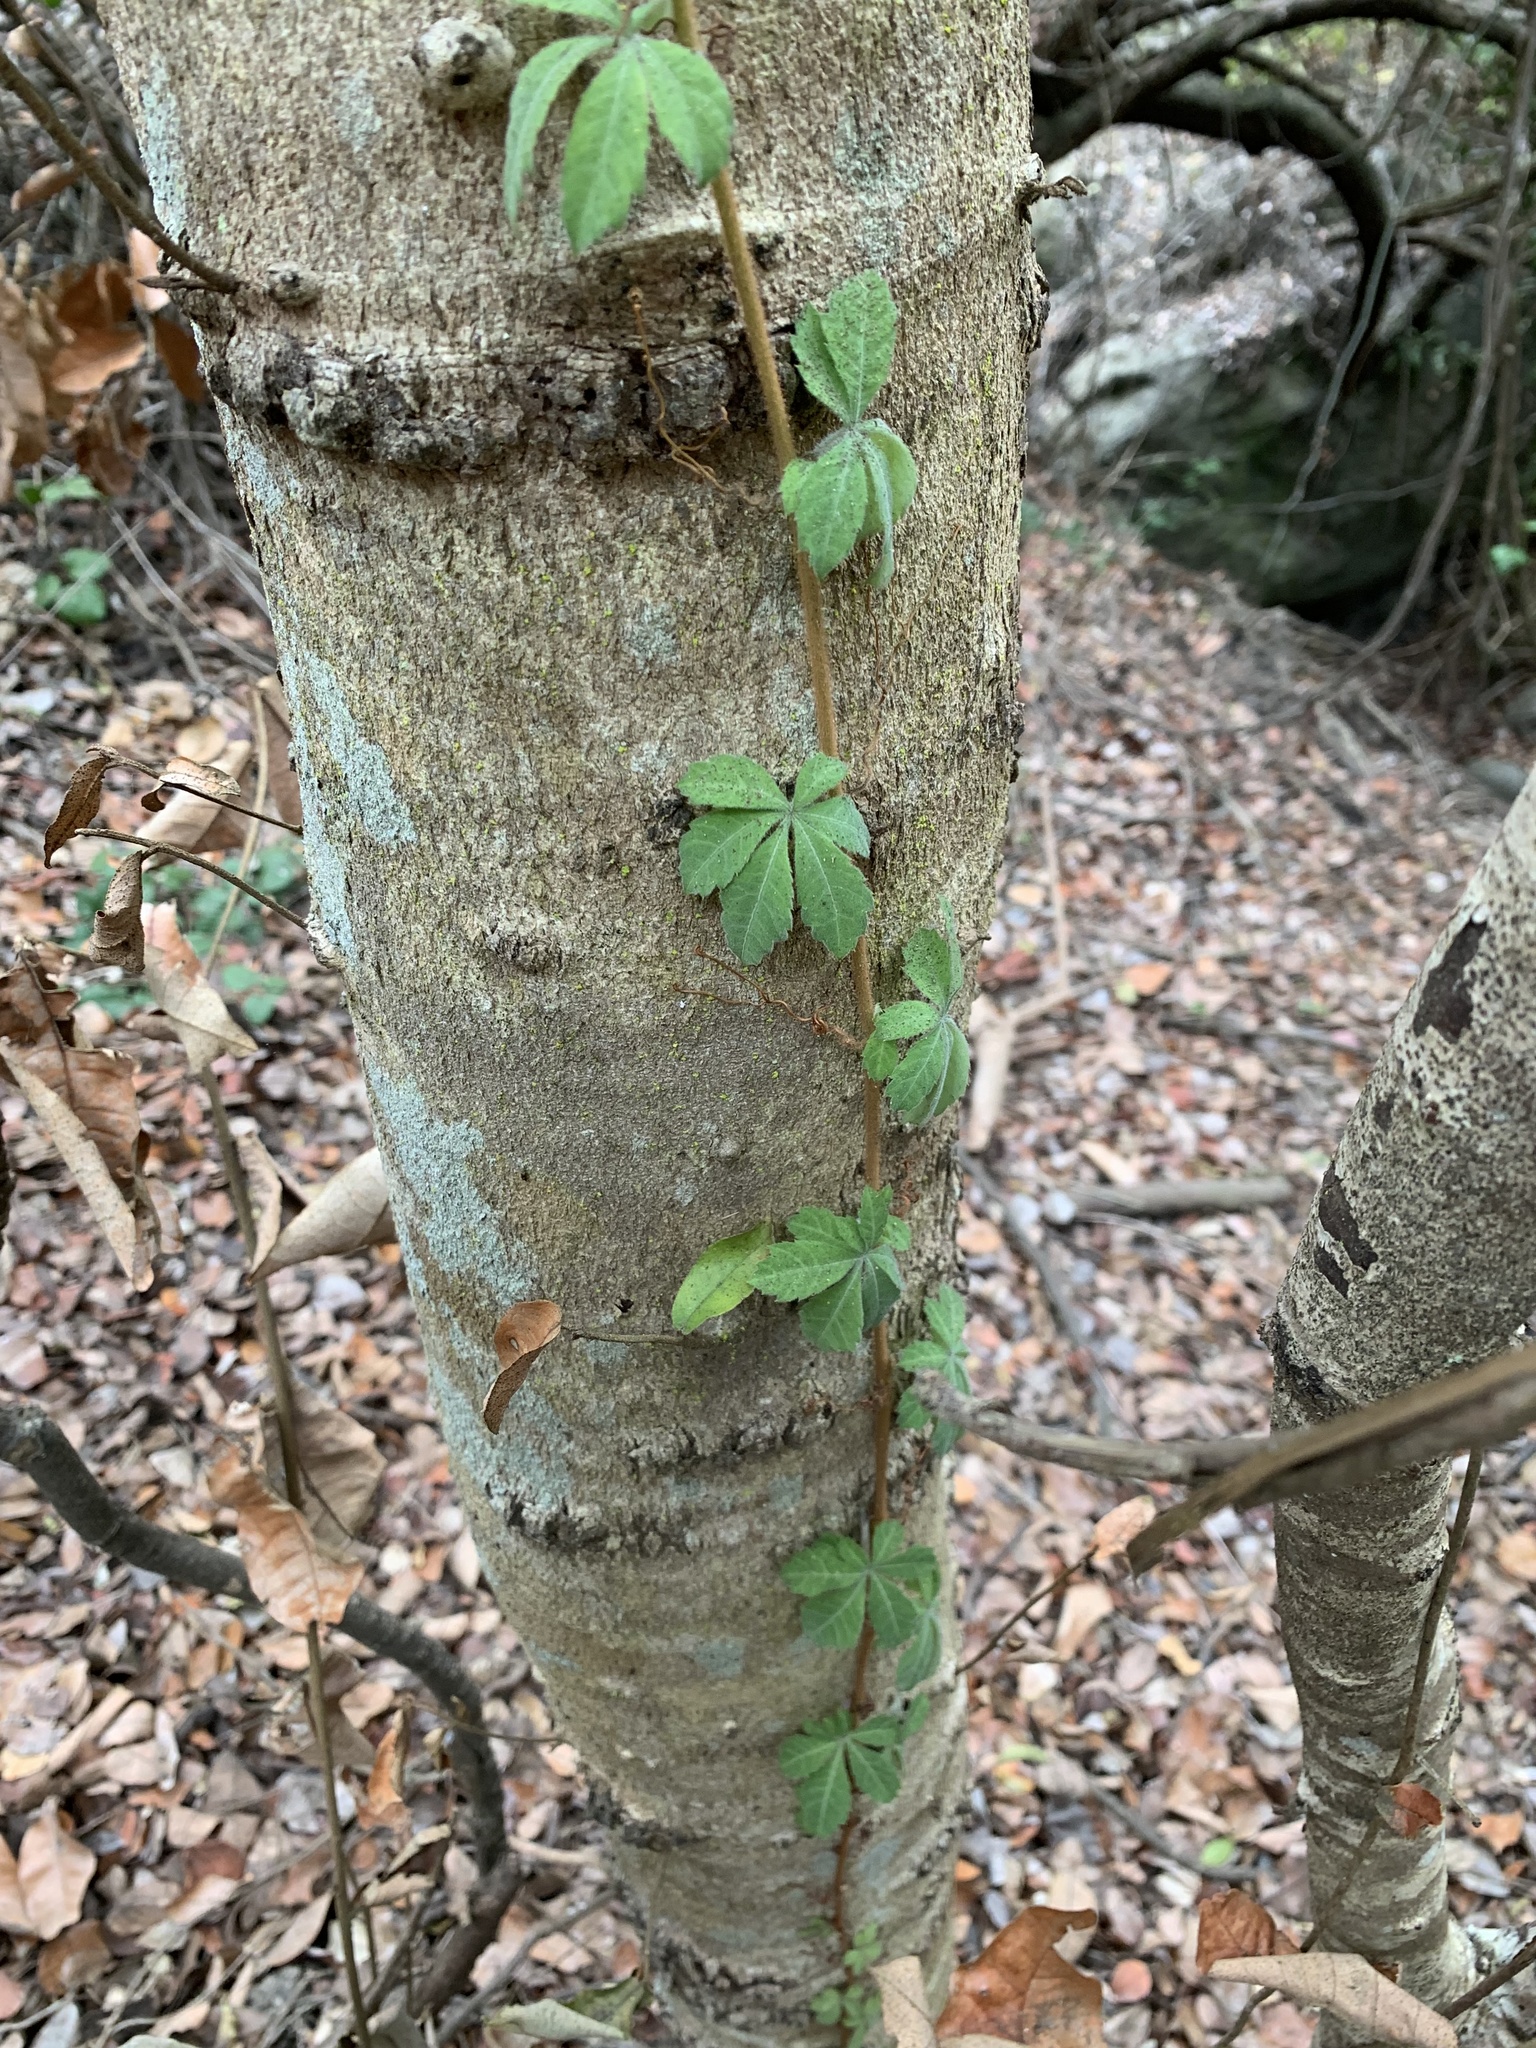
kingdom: Plantae
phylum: Tracheophyta
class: Magnoliopsida
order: Vitales
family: Vitaceae
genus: Clematicissus
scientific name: Clematicissus striata
